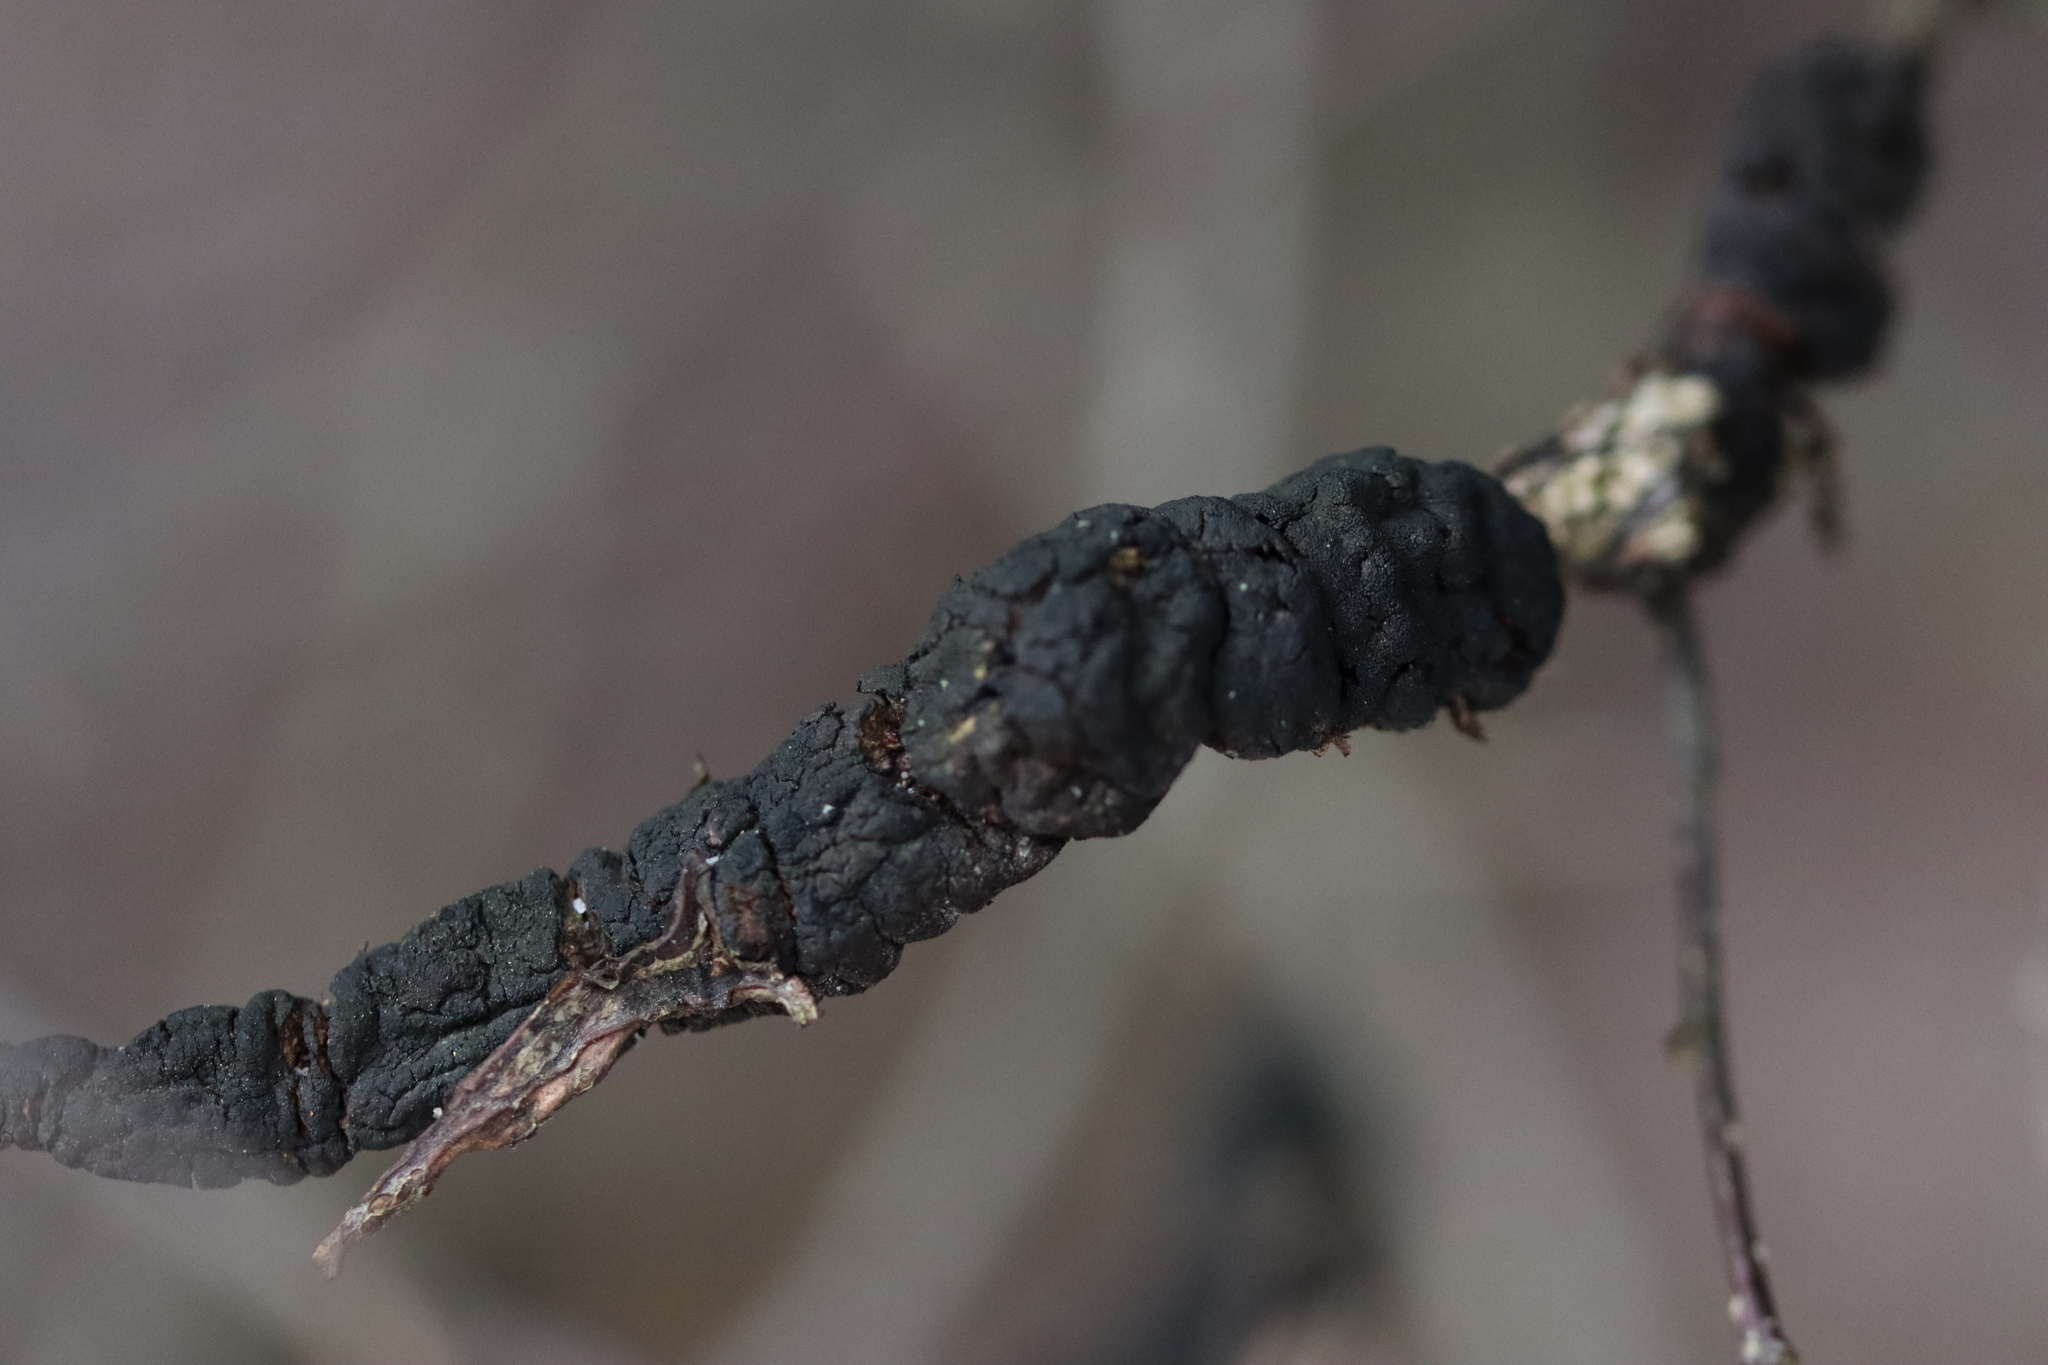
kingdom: Fungi
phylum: Ascomycota
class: Dothideomycetes
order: Venturiales
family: Venturiaceae
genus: Apiosporina
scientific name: Apiosporina morbosa
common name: Black knot
